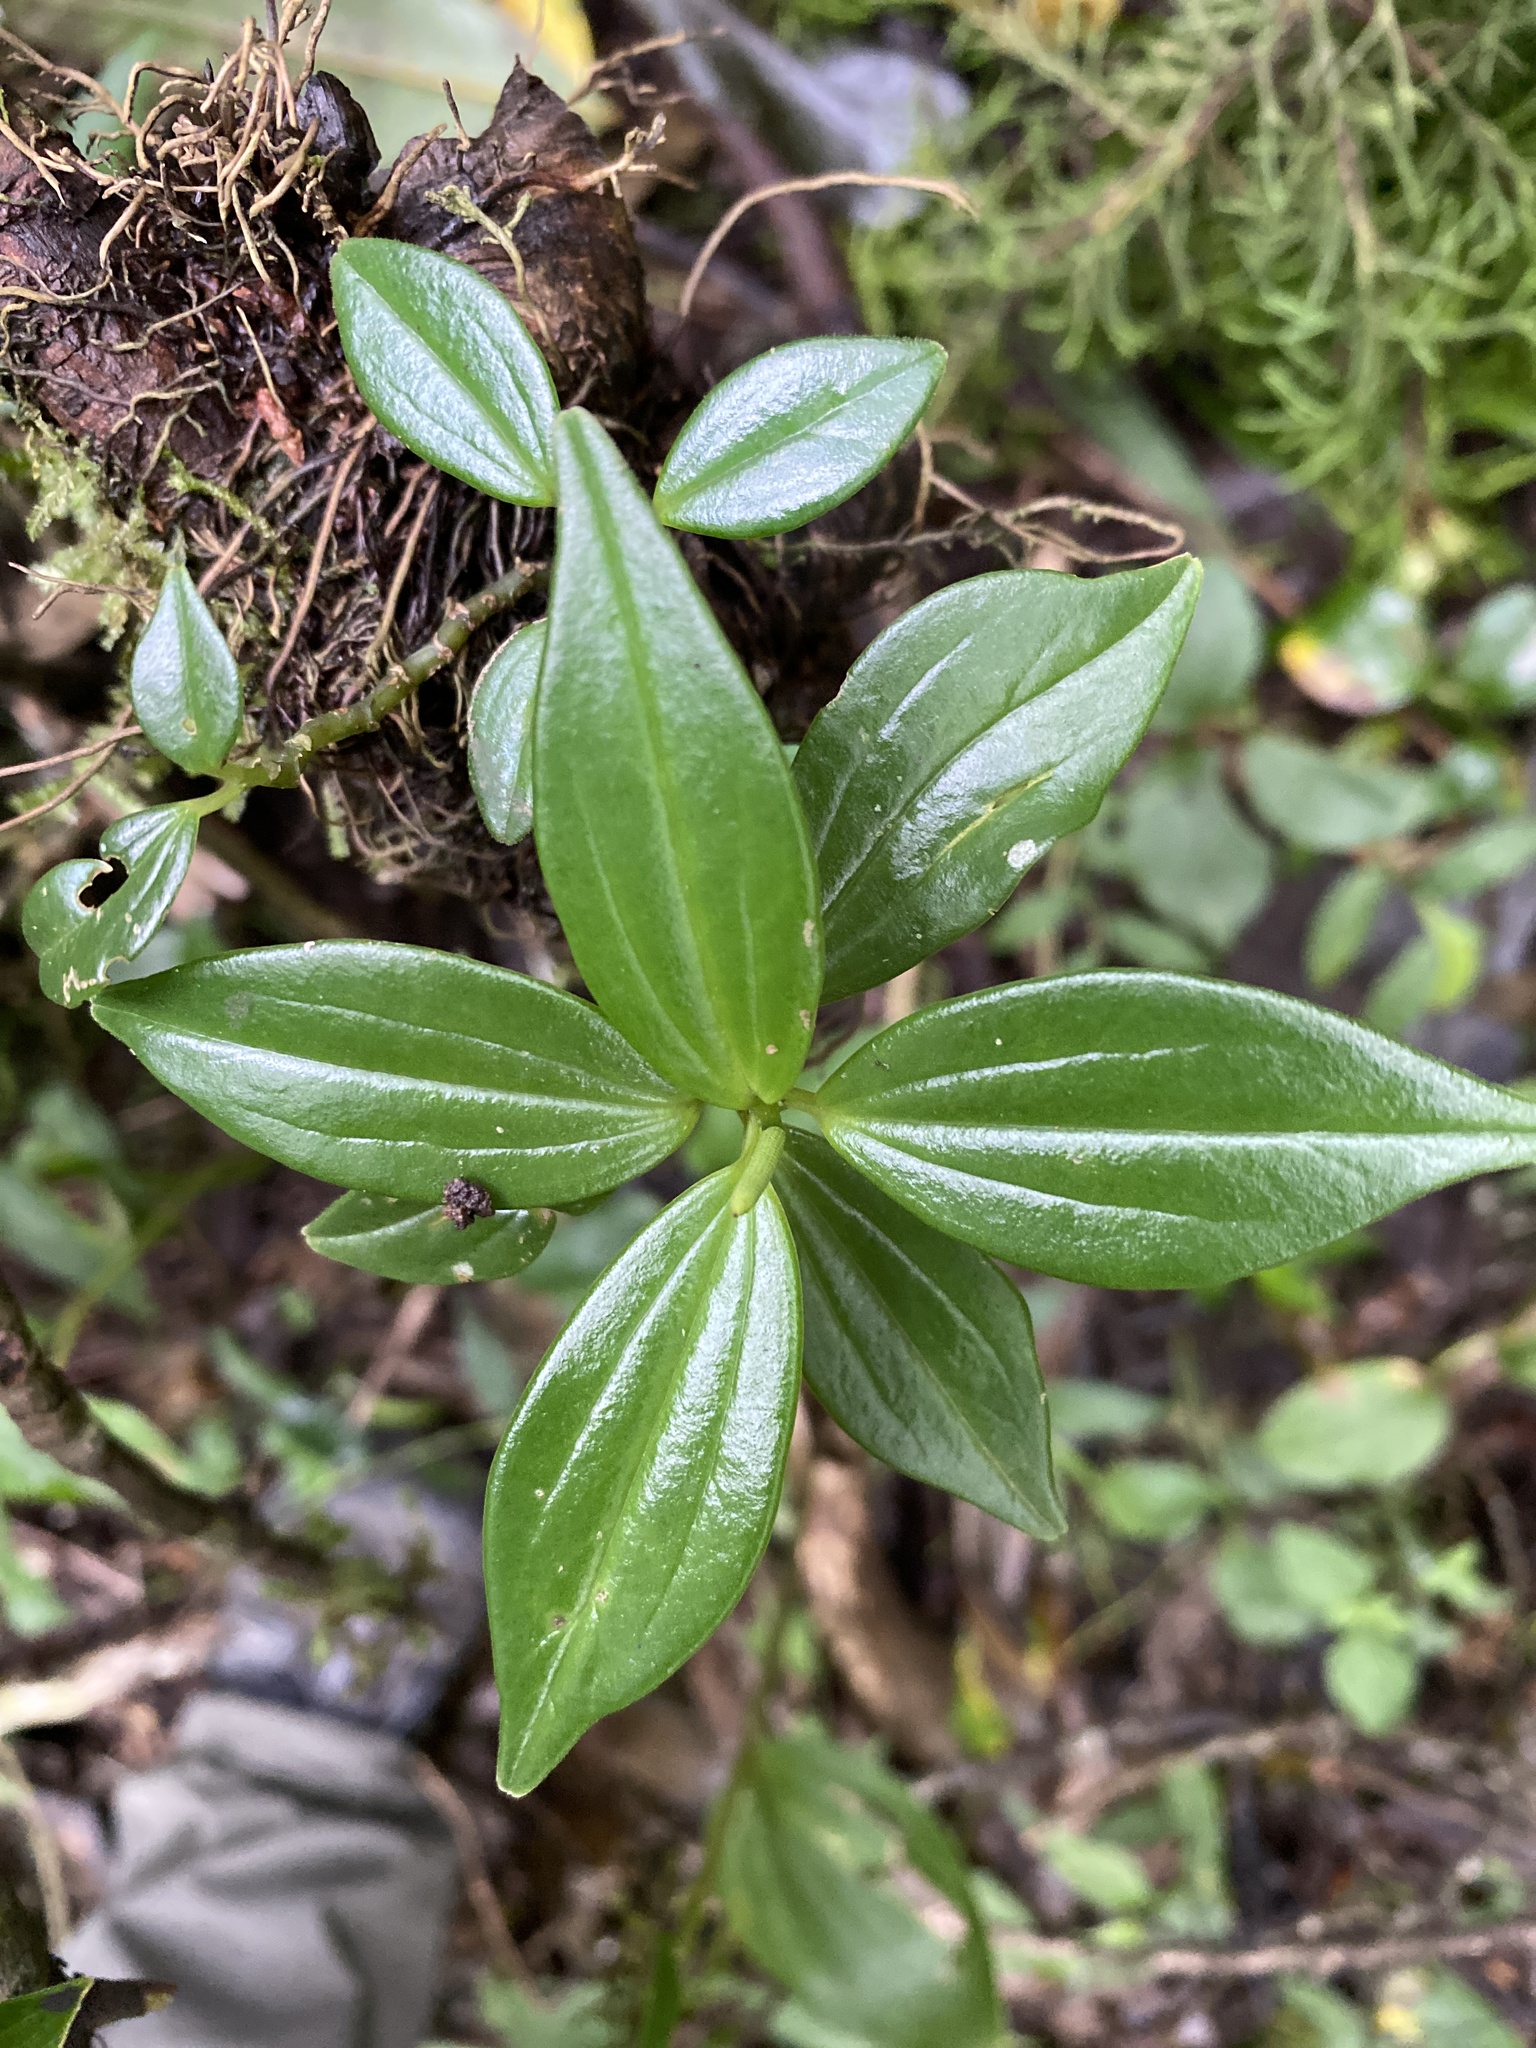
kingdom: Plantae
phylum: Tracheophyta
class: Magnoliopsida
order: Piperales
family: Piperaceae
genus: Peperomia
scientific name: Peperomia san-joseana
